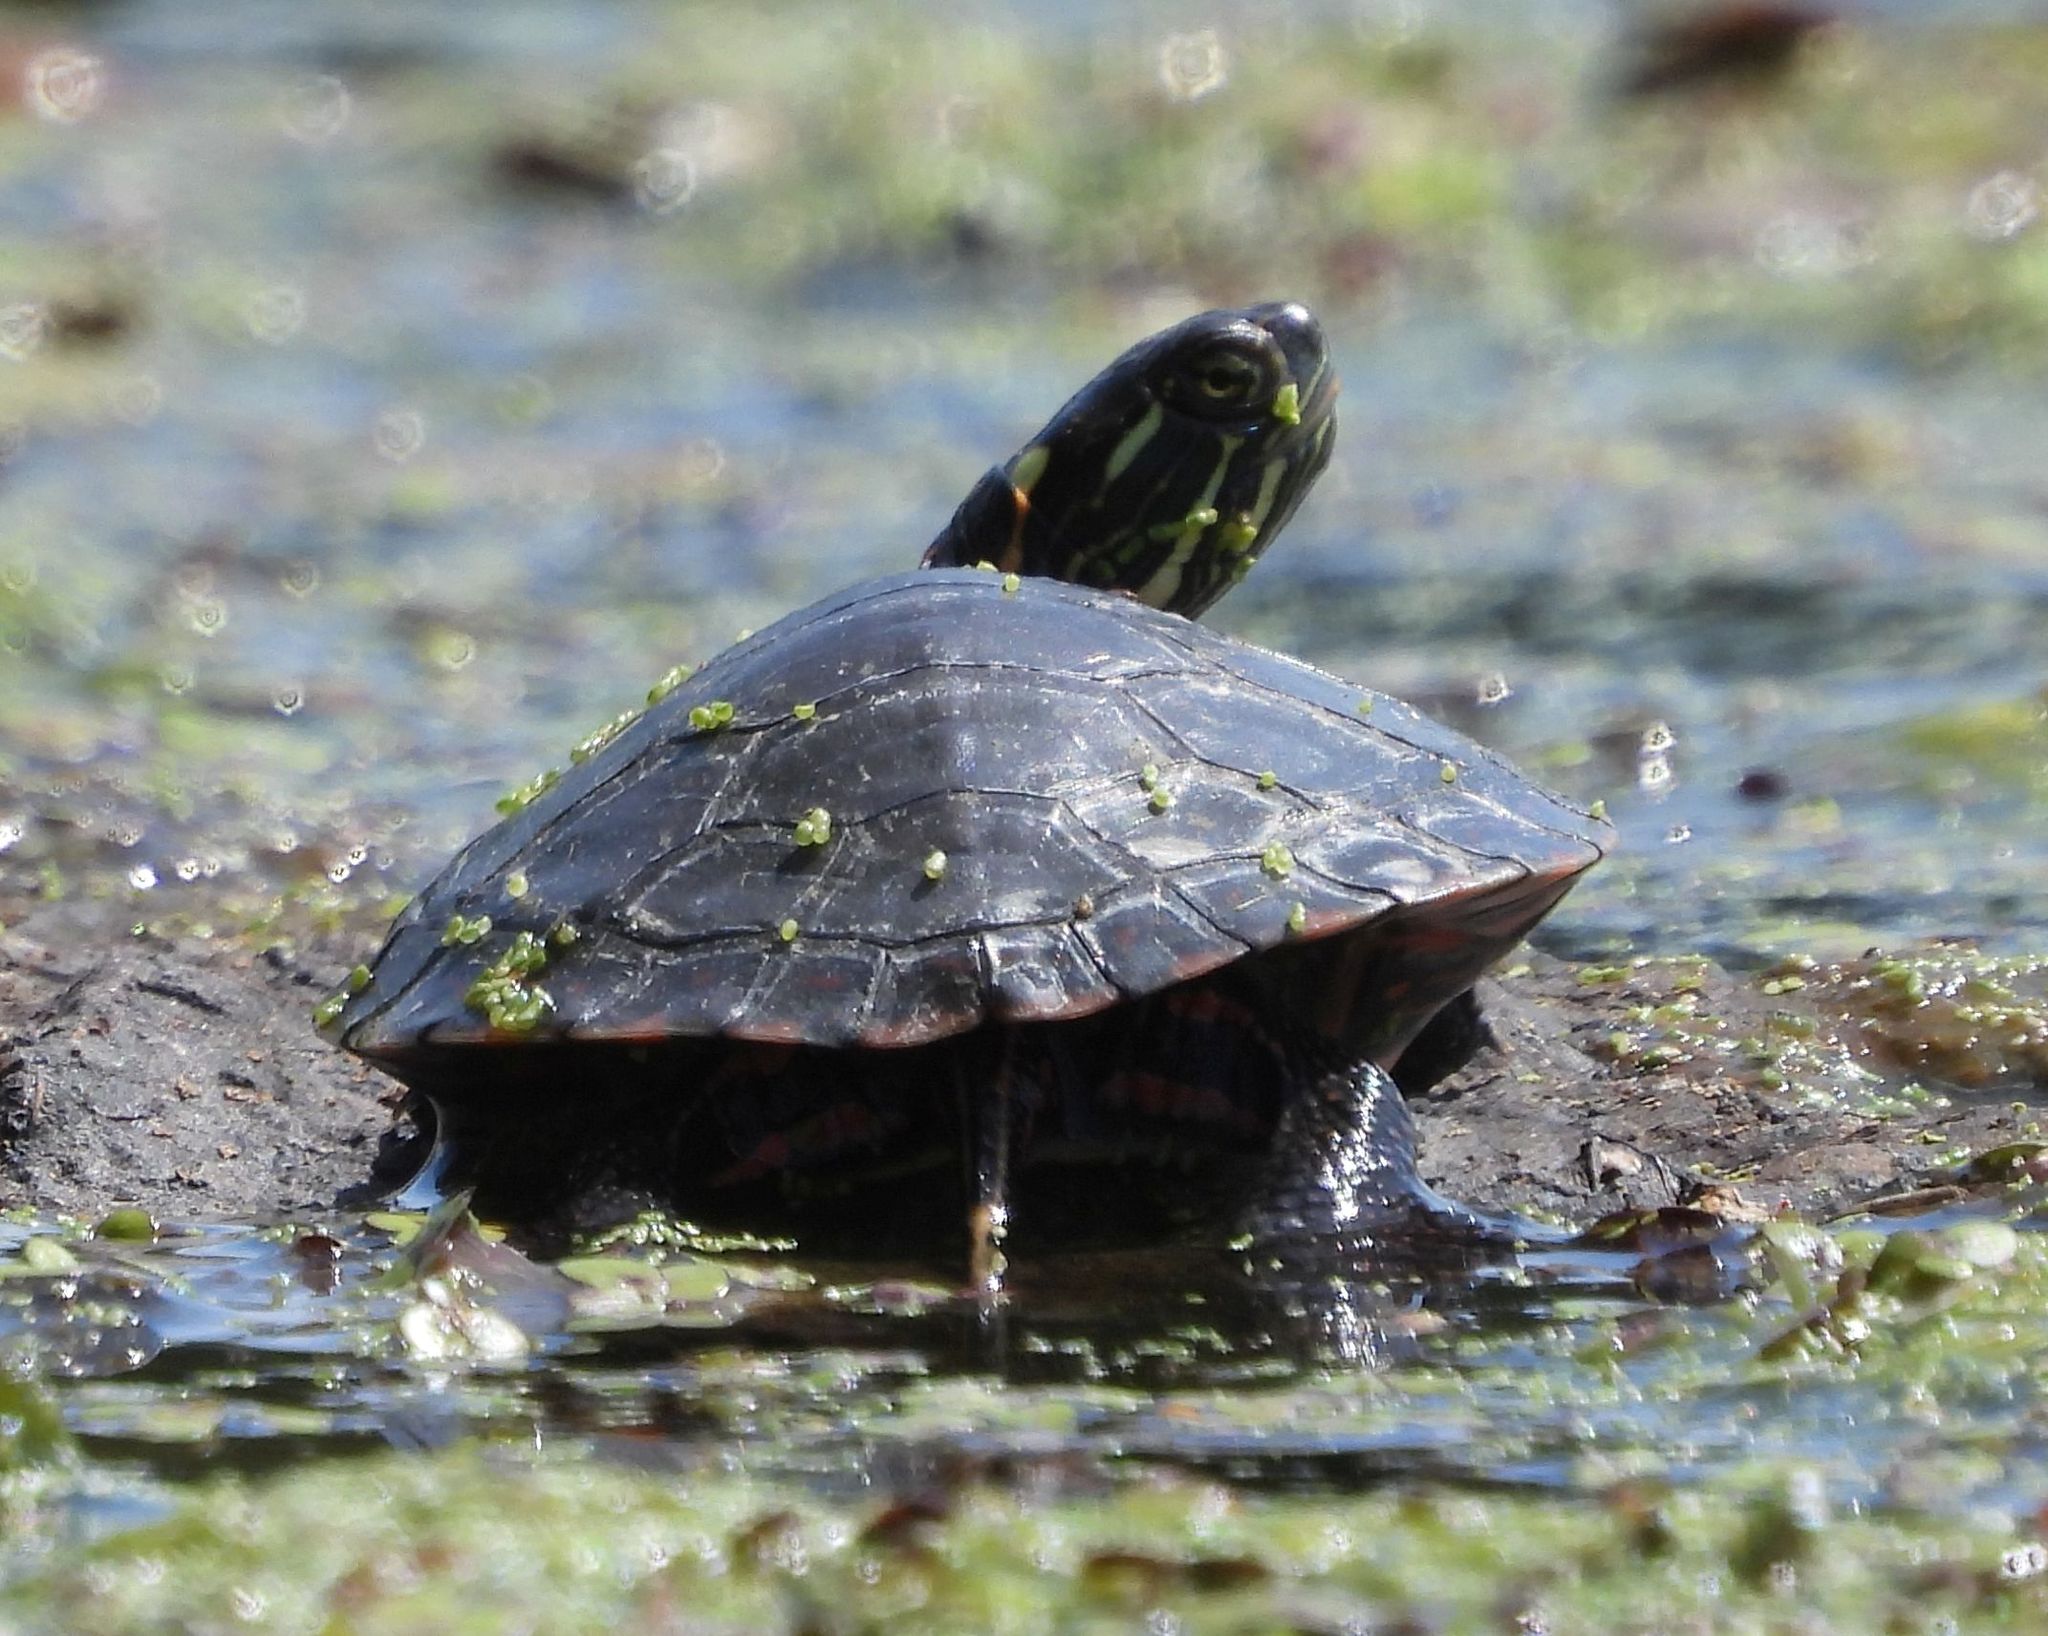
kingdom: Animalia
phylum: Chordata
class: Testudines
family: Emydidae
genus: Chrysemys
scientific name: Chrysemys picta
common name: Painted turtle
